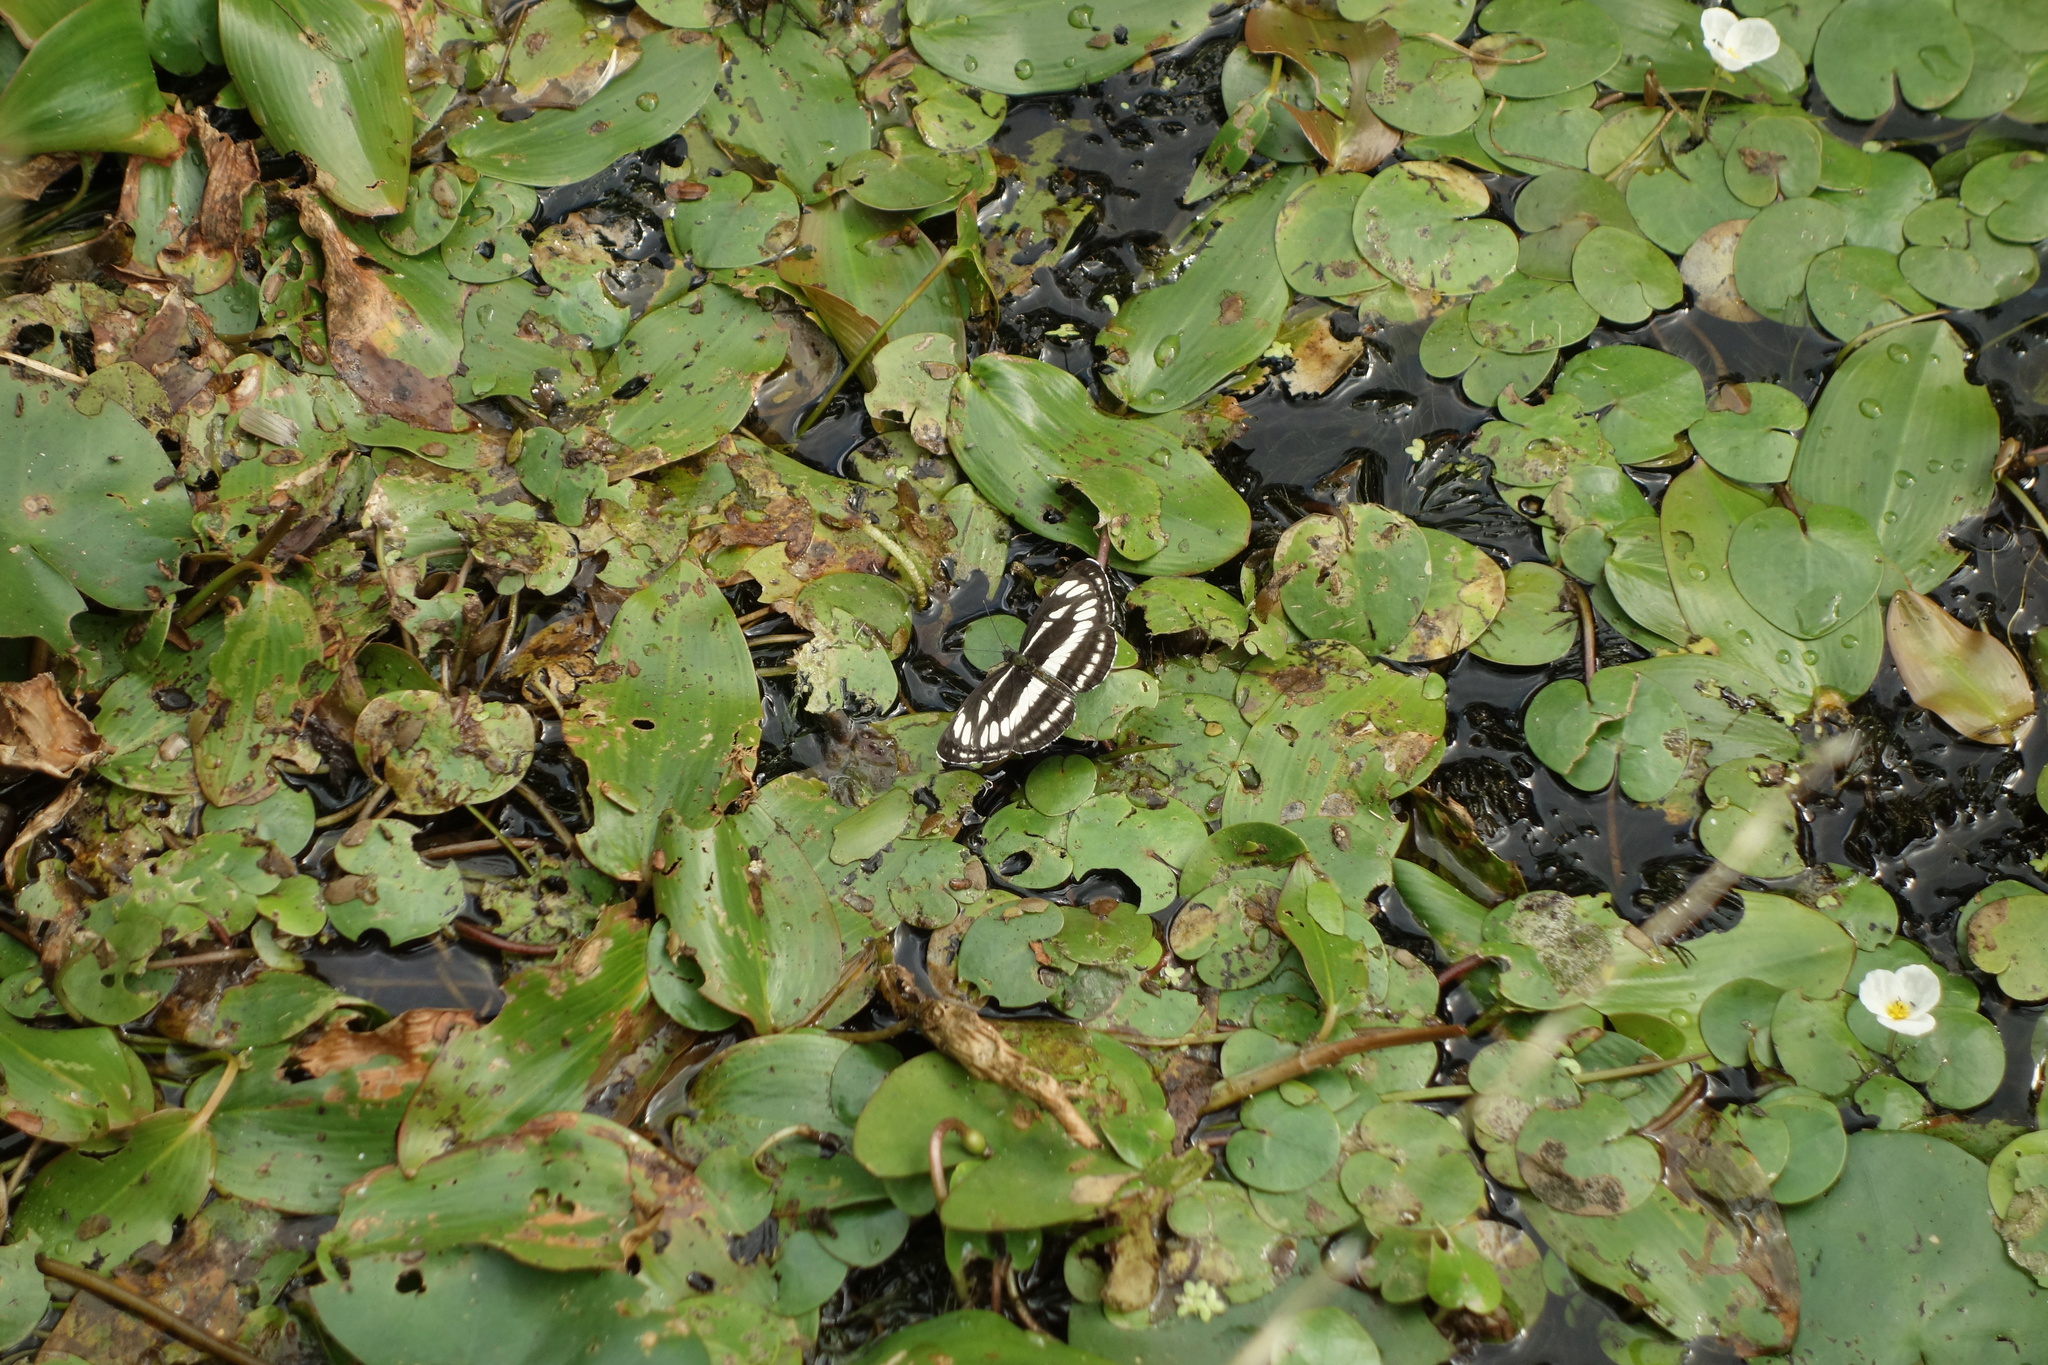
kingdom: Animalia
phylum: Arthropoda
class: Insecta
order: Lepidoptera
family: Nymphalidae
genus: Neptis
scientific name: Neptis sappho
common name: Common glider
